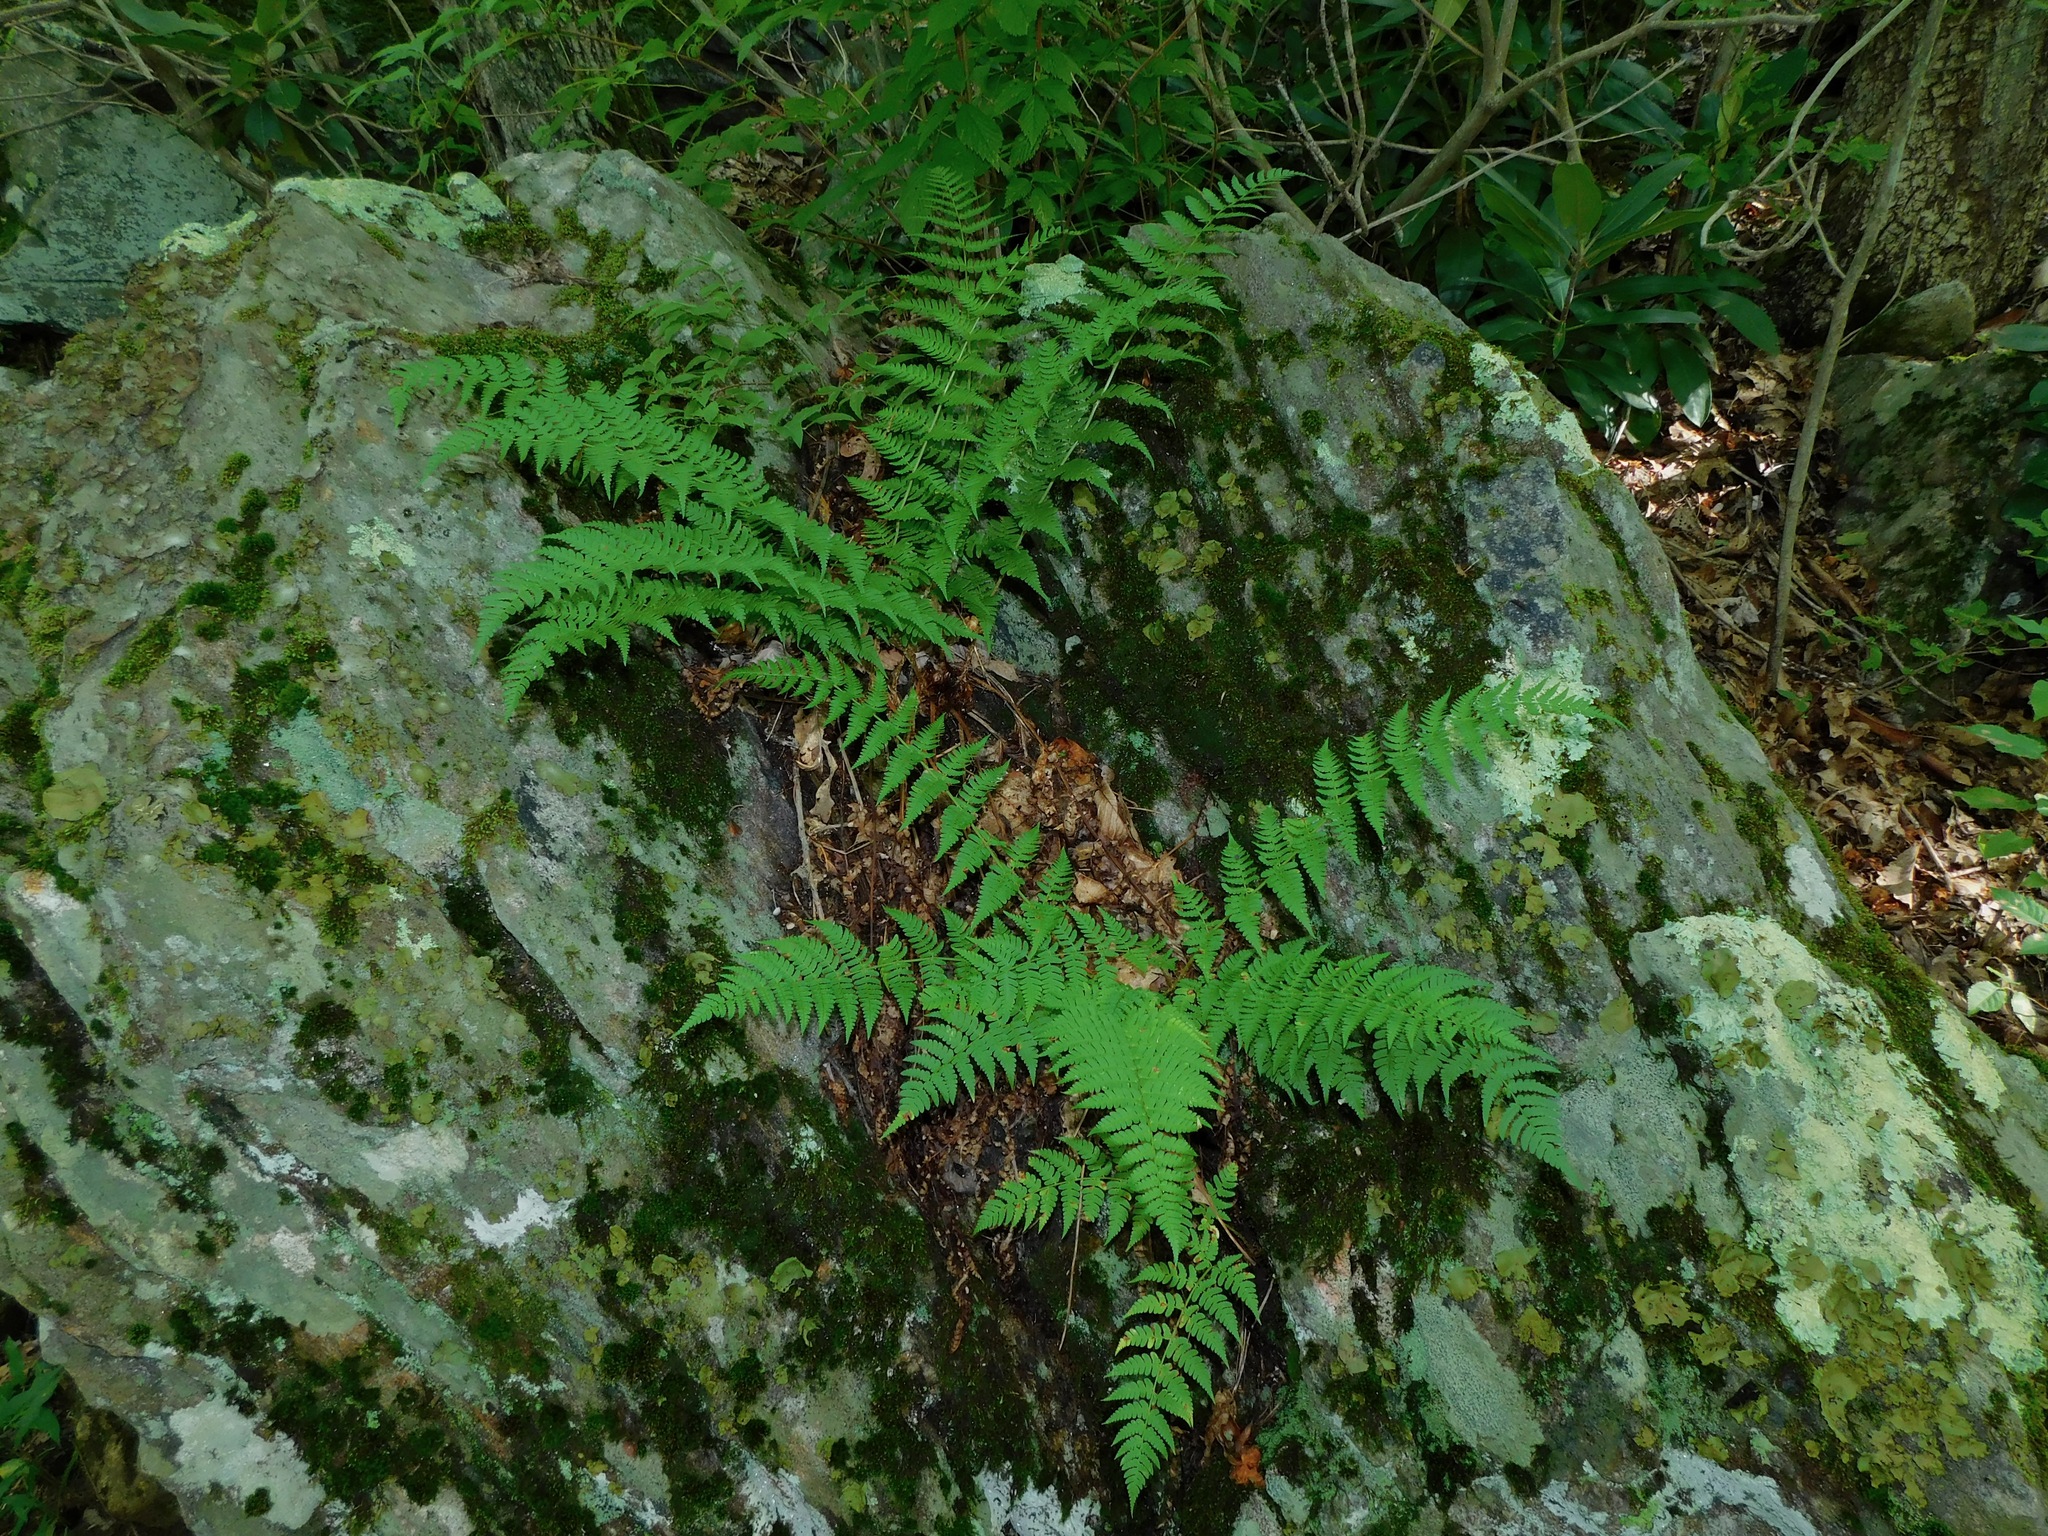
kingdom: Plantae
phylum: Tracheophyta
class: Polypodiopsida
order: Polypodiales
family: Dryopteridaceae
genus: Dryopteris
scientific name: Dryopteris marginalis
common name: Marginal wood fern
